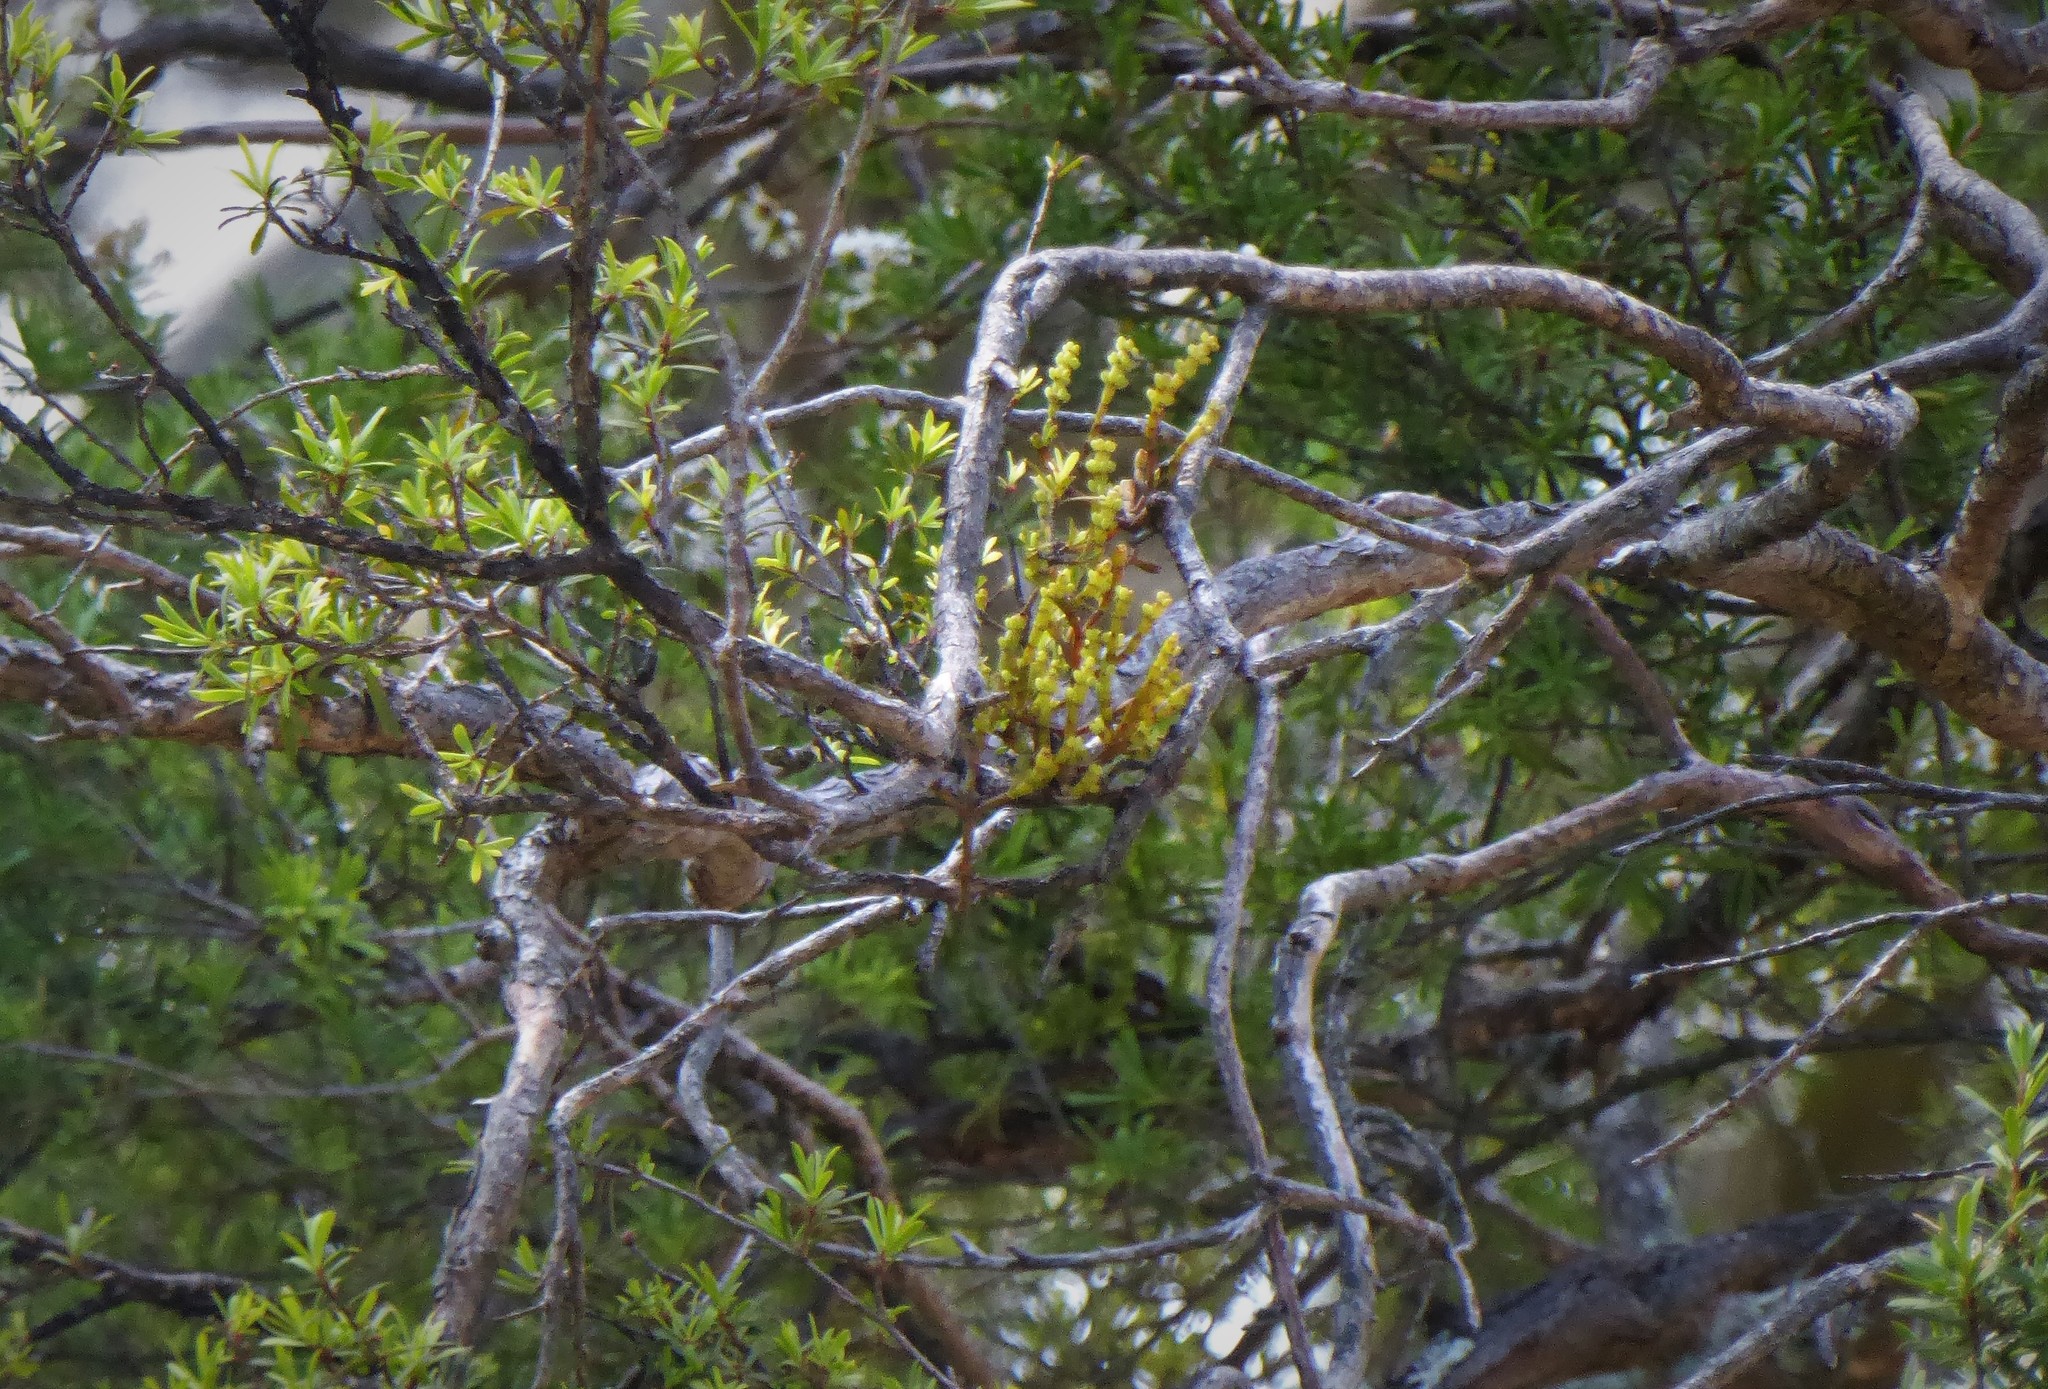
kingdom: Plantae
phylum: Tracheophyta
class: Magnoliopsida
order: Santalales
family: Viscaceae
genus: Korthalsella
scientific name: Korthalsella salicornioides
